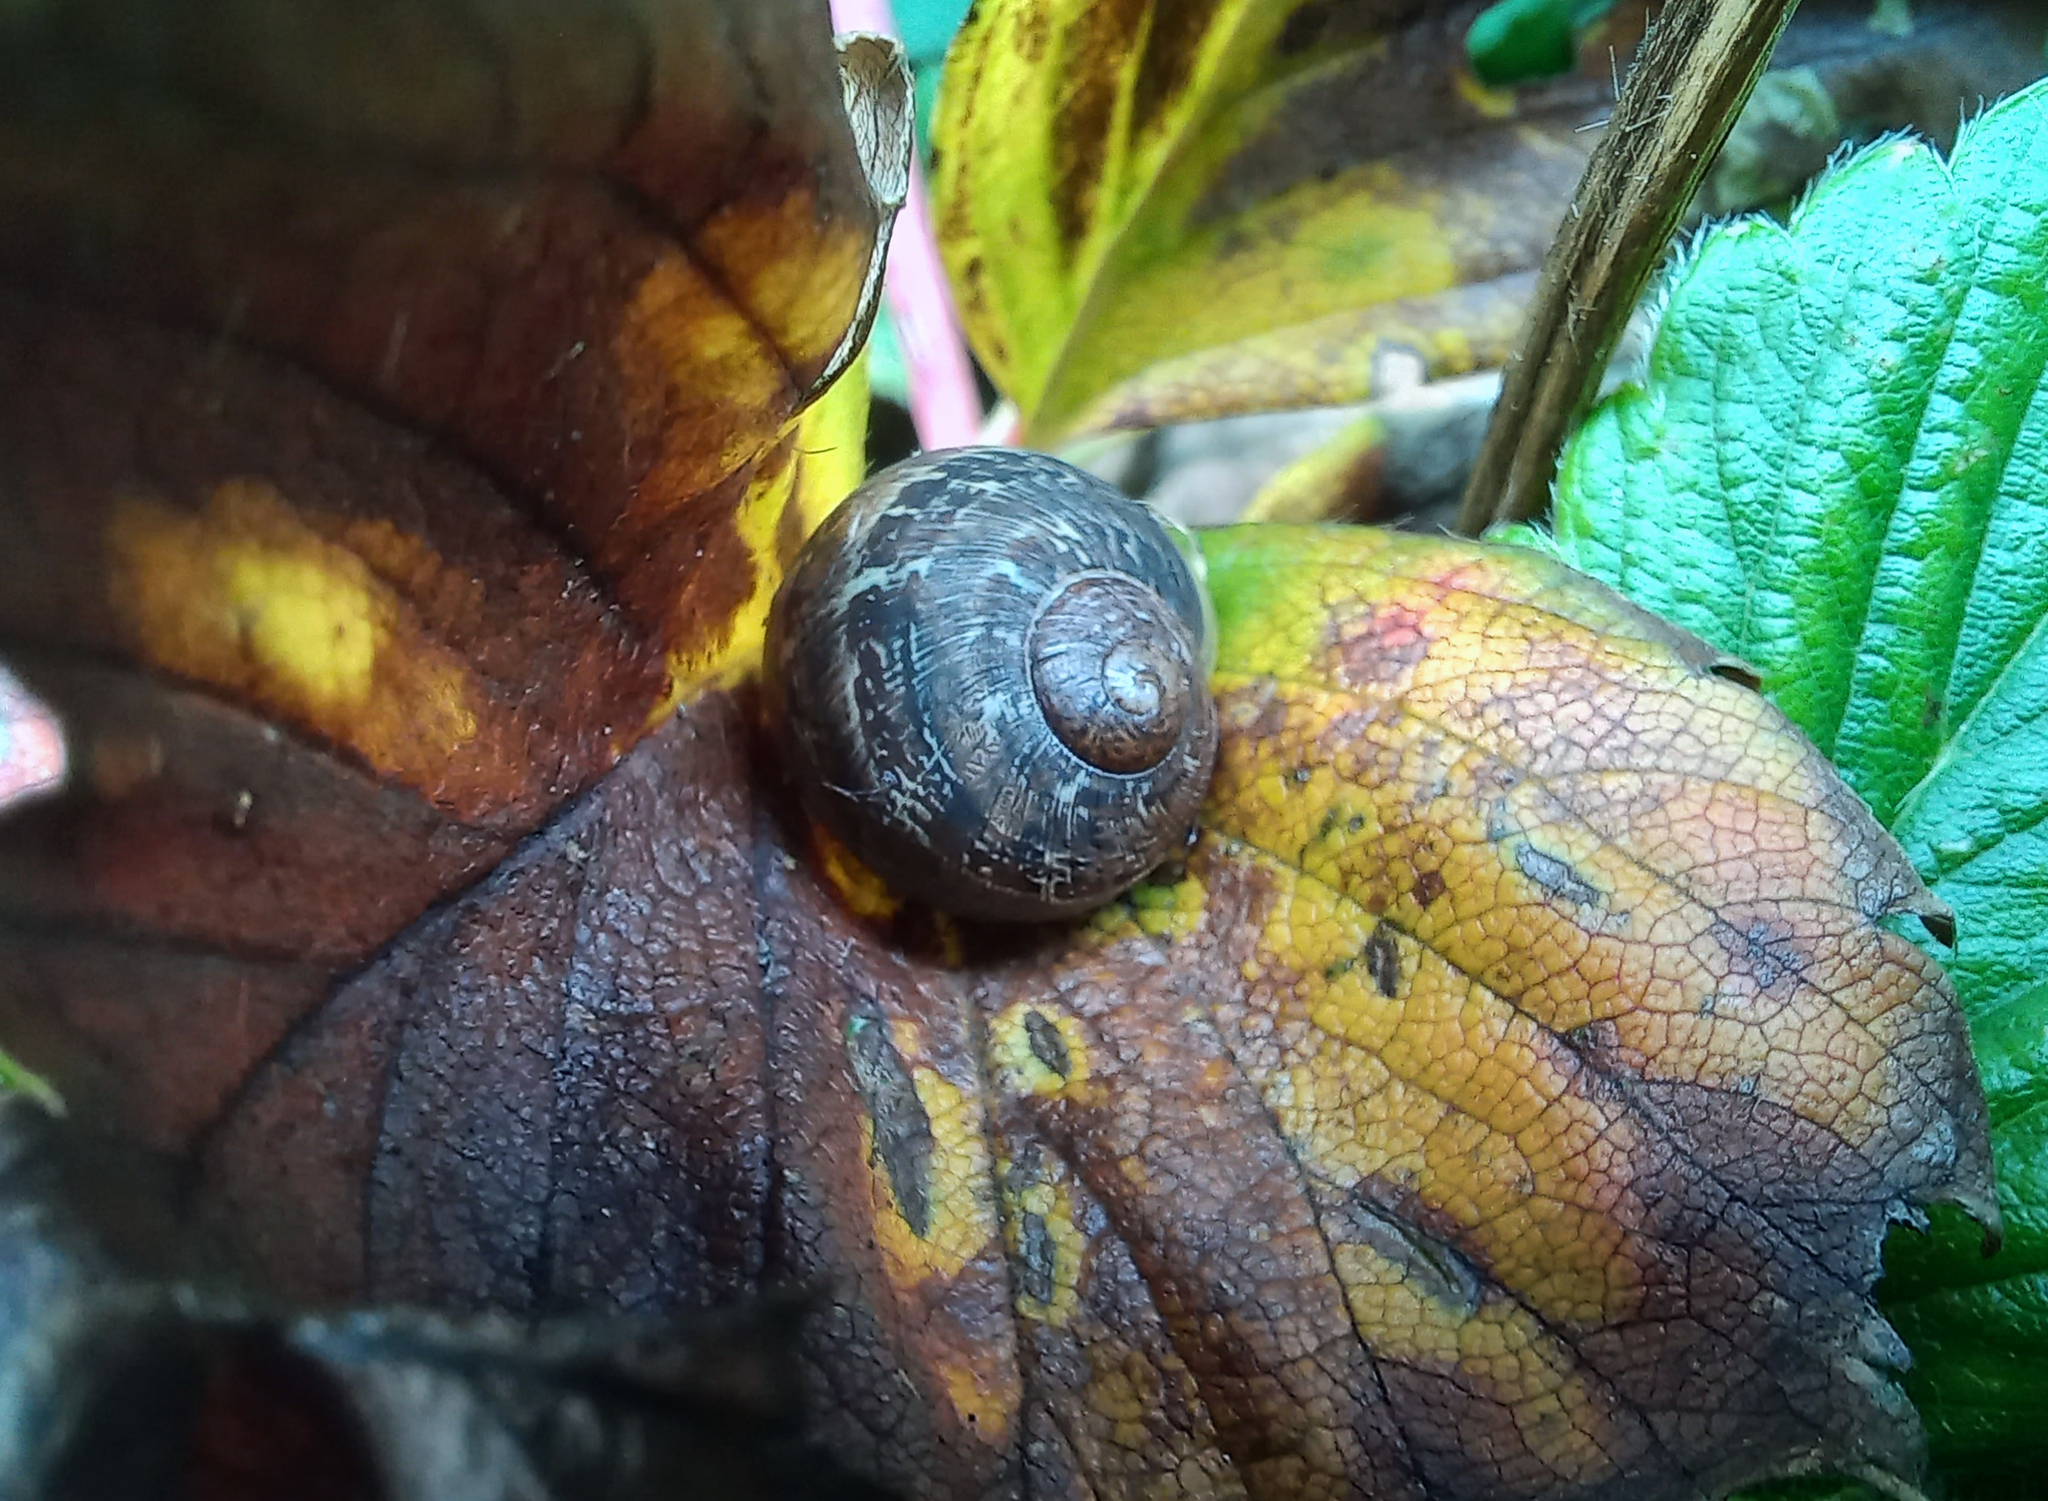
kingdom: Animalia
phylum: Mollusca
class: Gastropoda
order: Stylommatophora
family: Helicidae
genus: Cornu
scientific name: Cornu aspersum
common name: Brown garden snail
